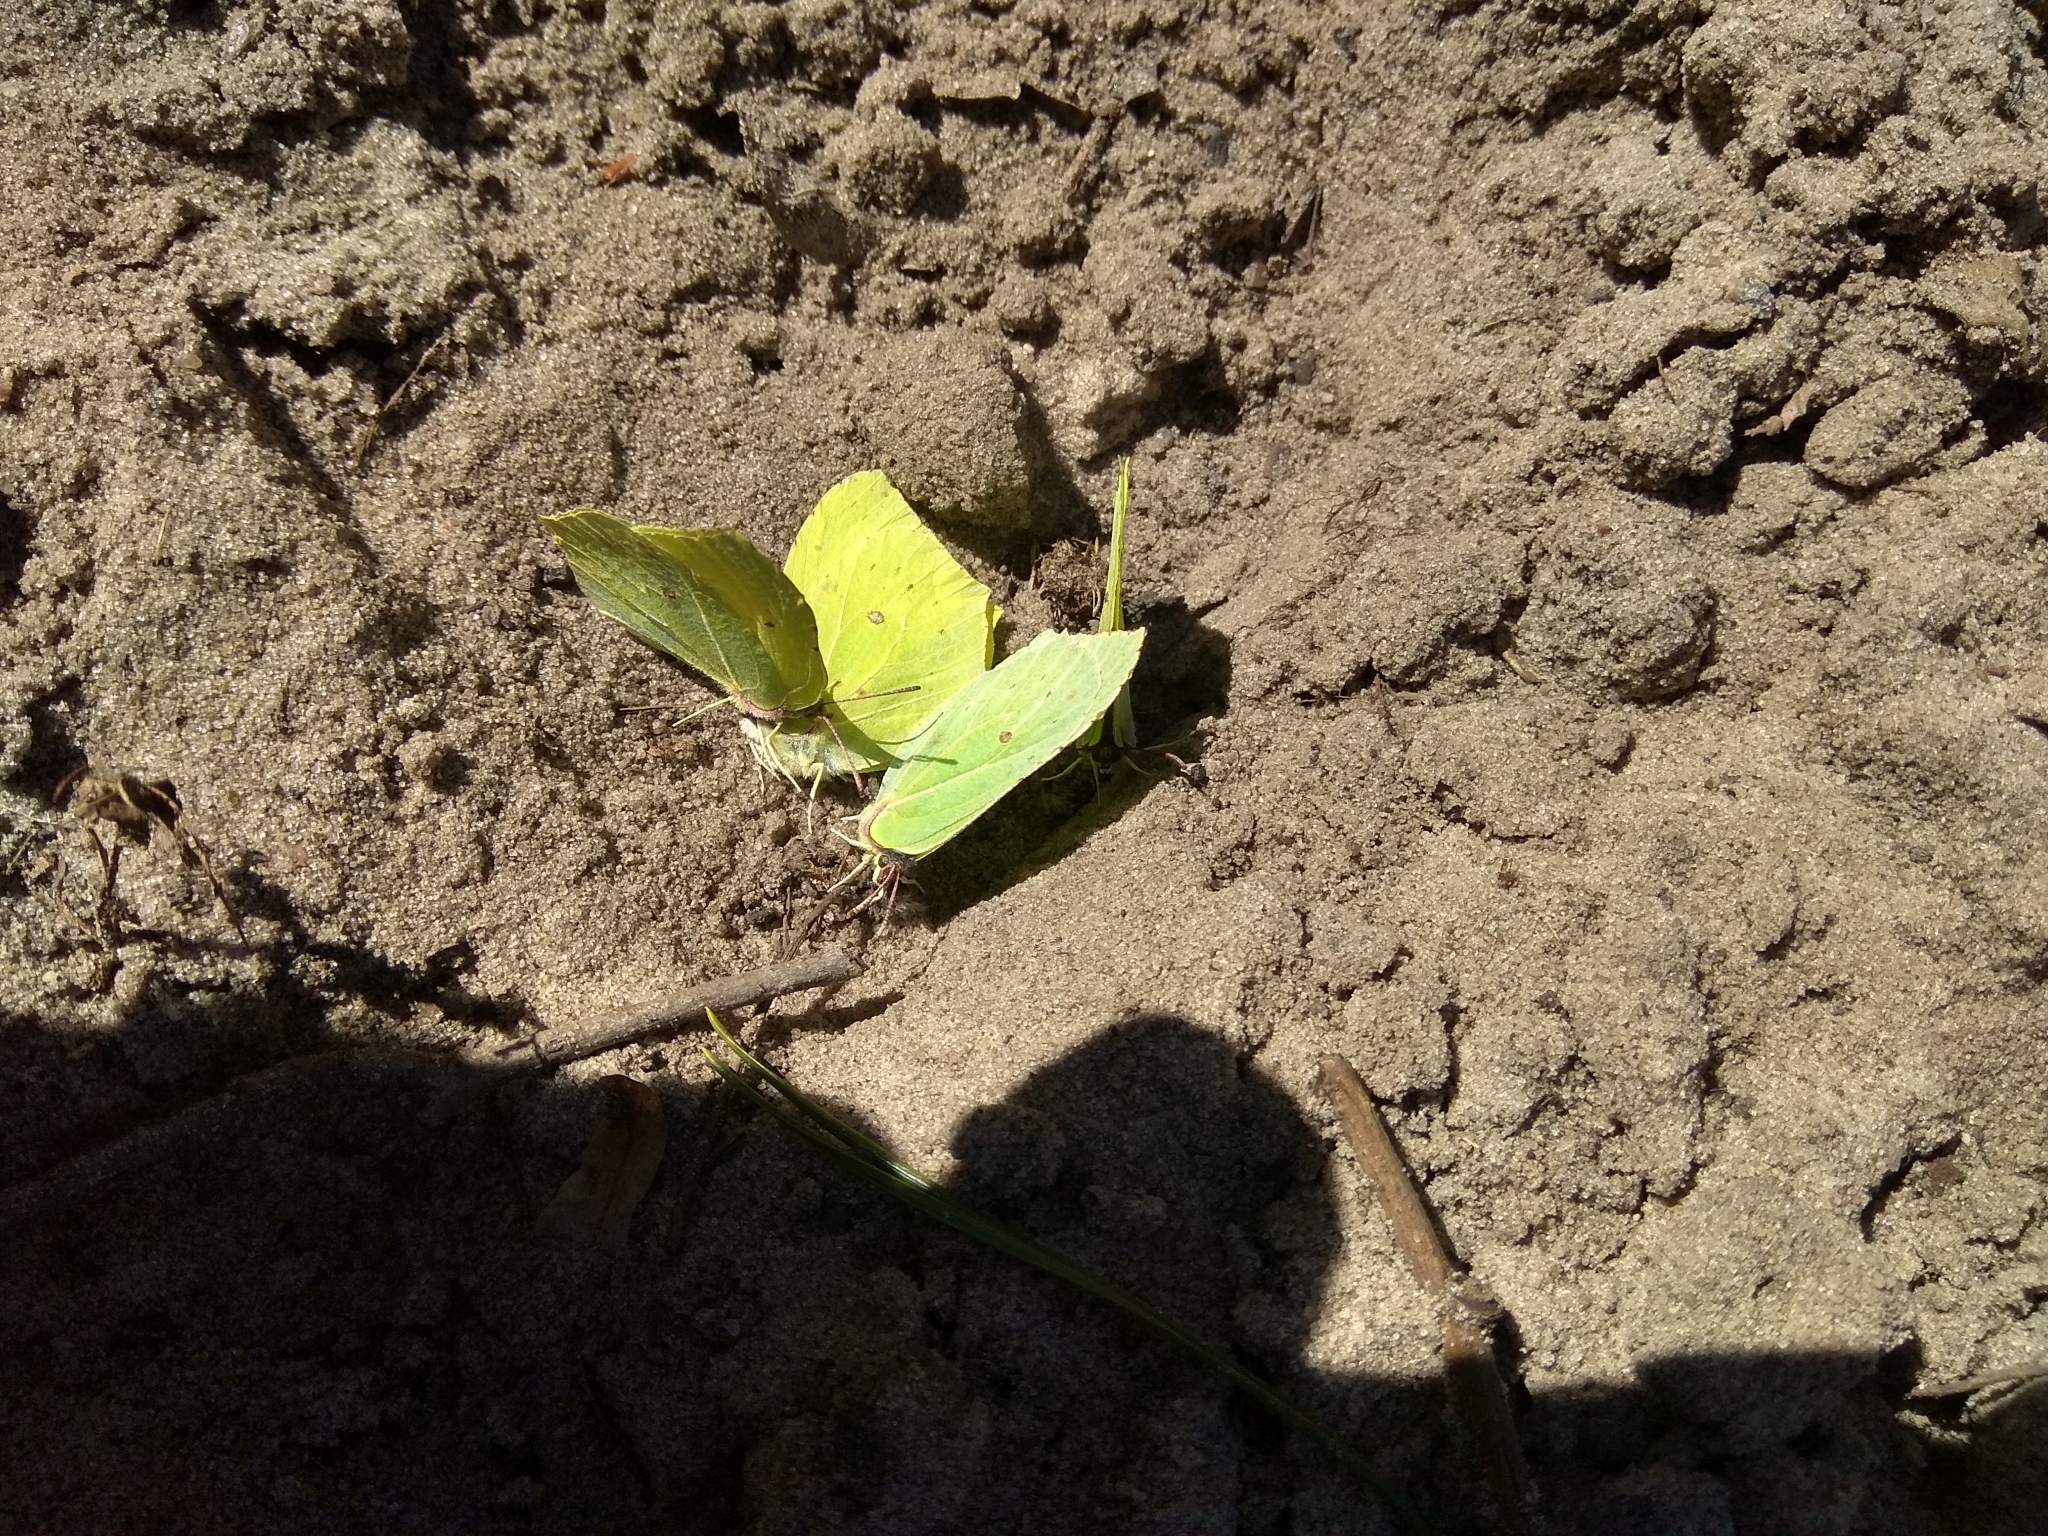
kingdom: Animalia
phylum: Arthropoda
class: Insecta
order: Lepidoptera
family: Pieridae
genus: Gonepteryx
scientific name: Gonepteryx rhamni
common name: Brimstone
